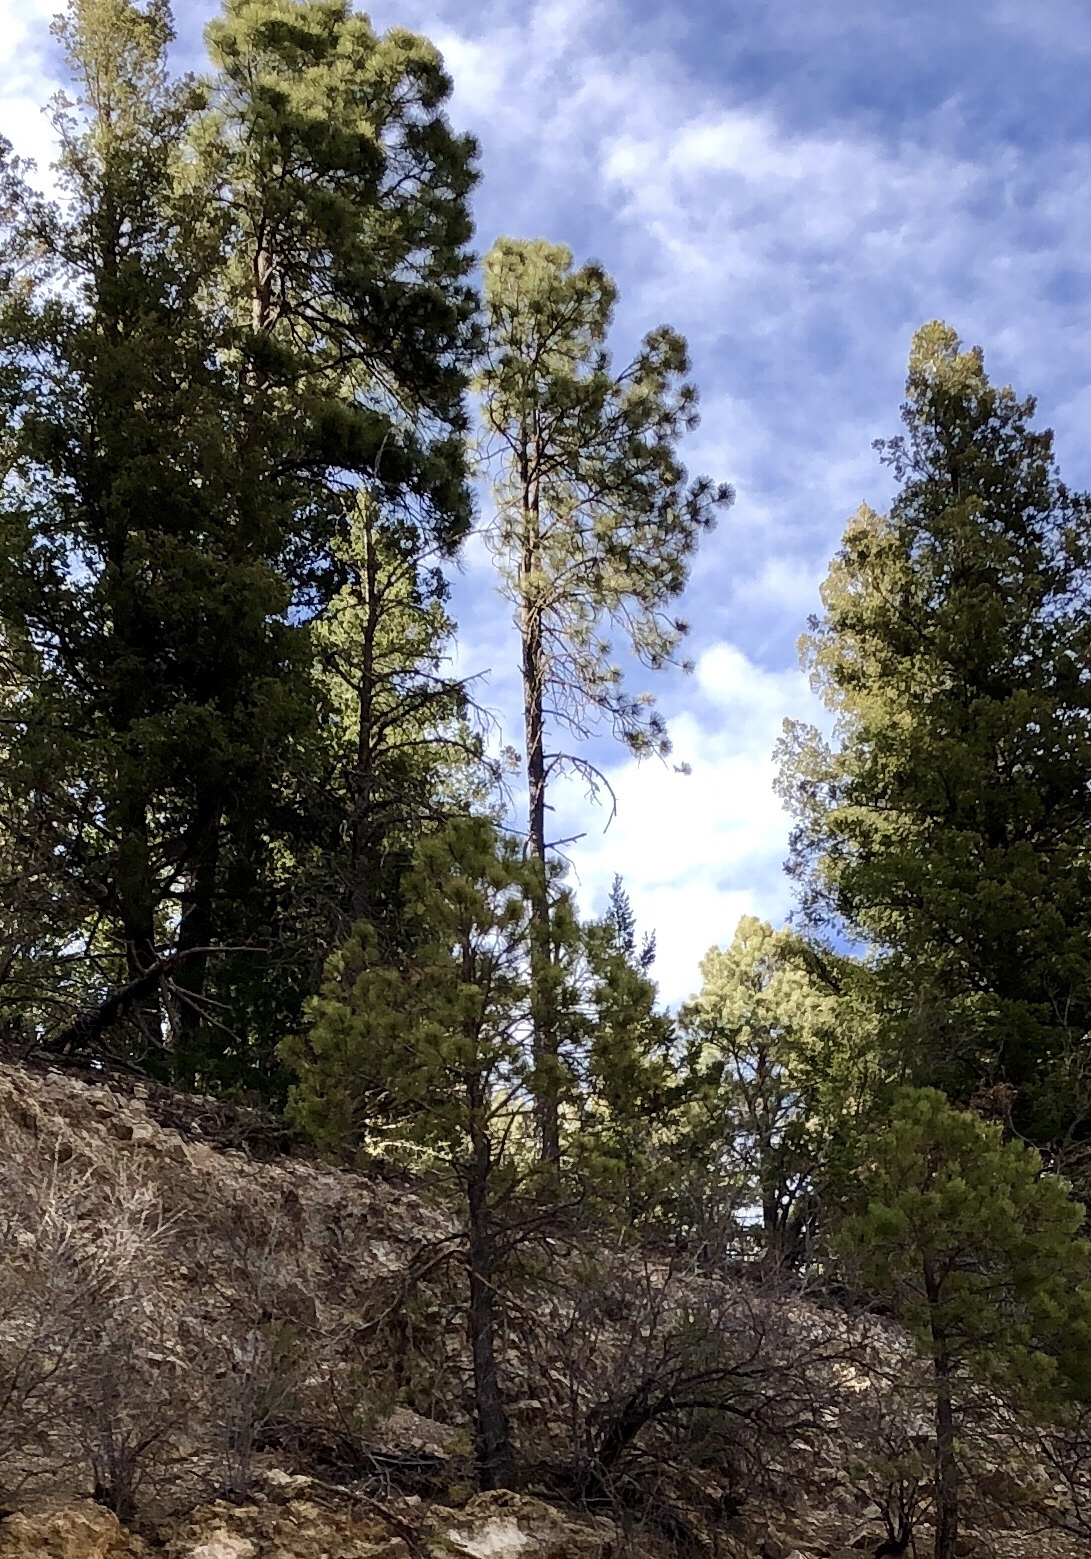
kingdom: Plantae
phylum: Tracheophyta
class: Pinopsida
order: Pinales
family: Pinaceae
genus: Pinus
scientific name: Pinus ponderosa
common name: Western yellow-pine
